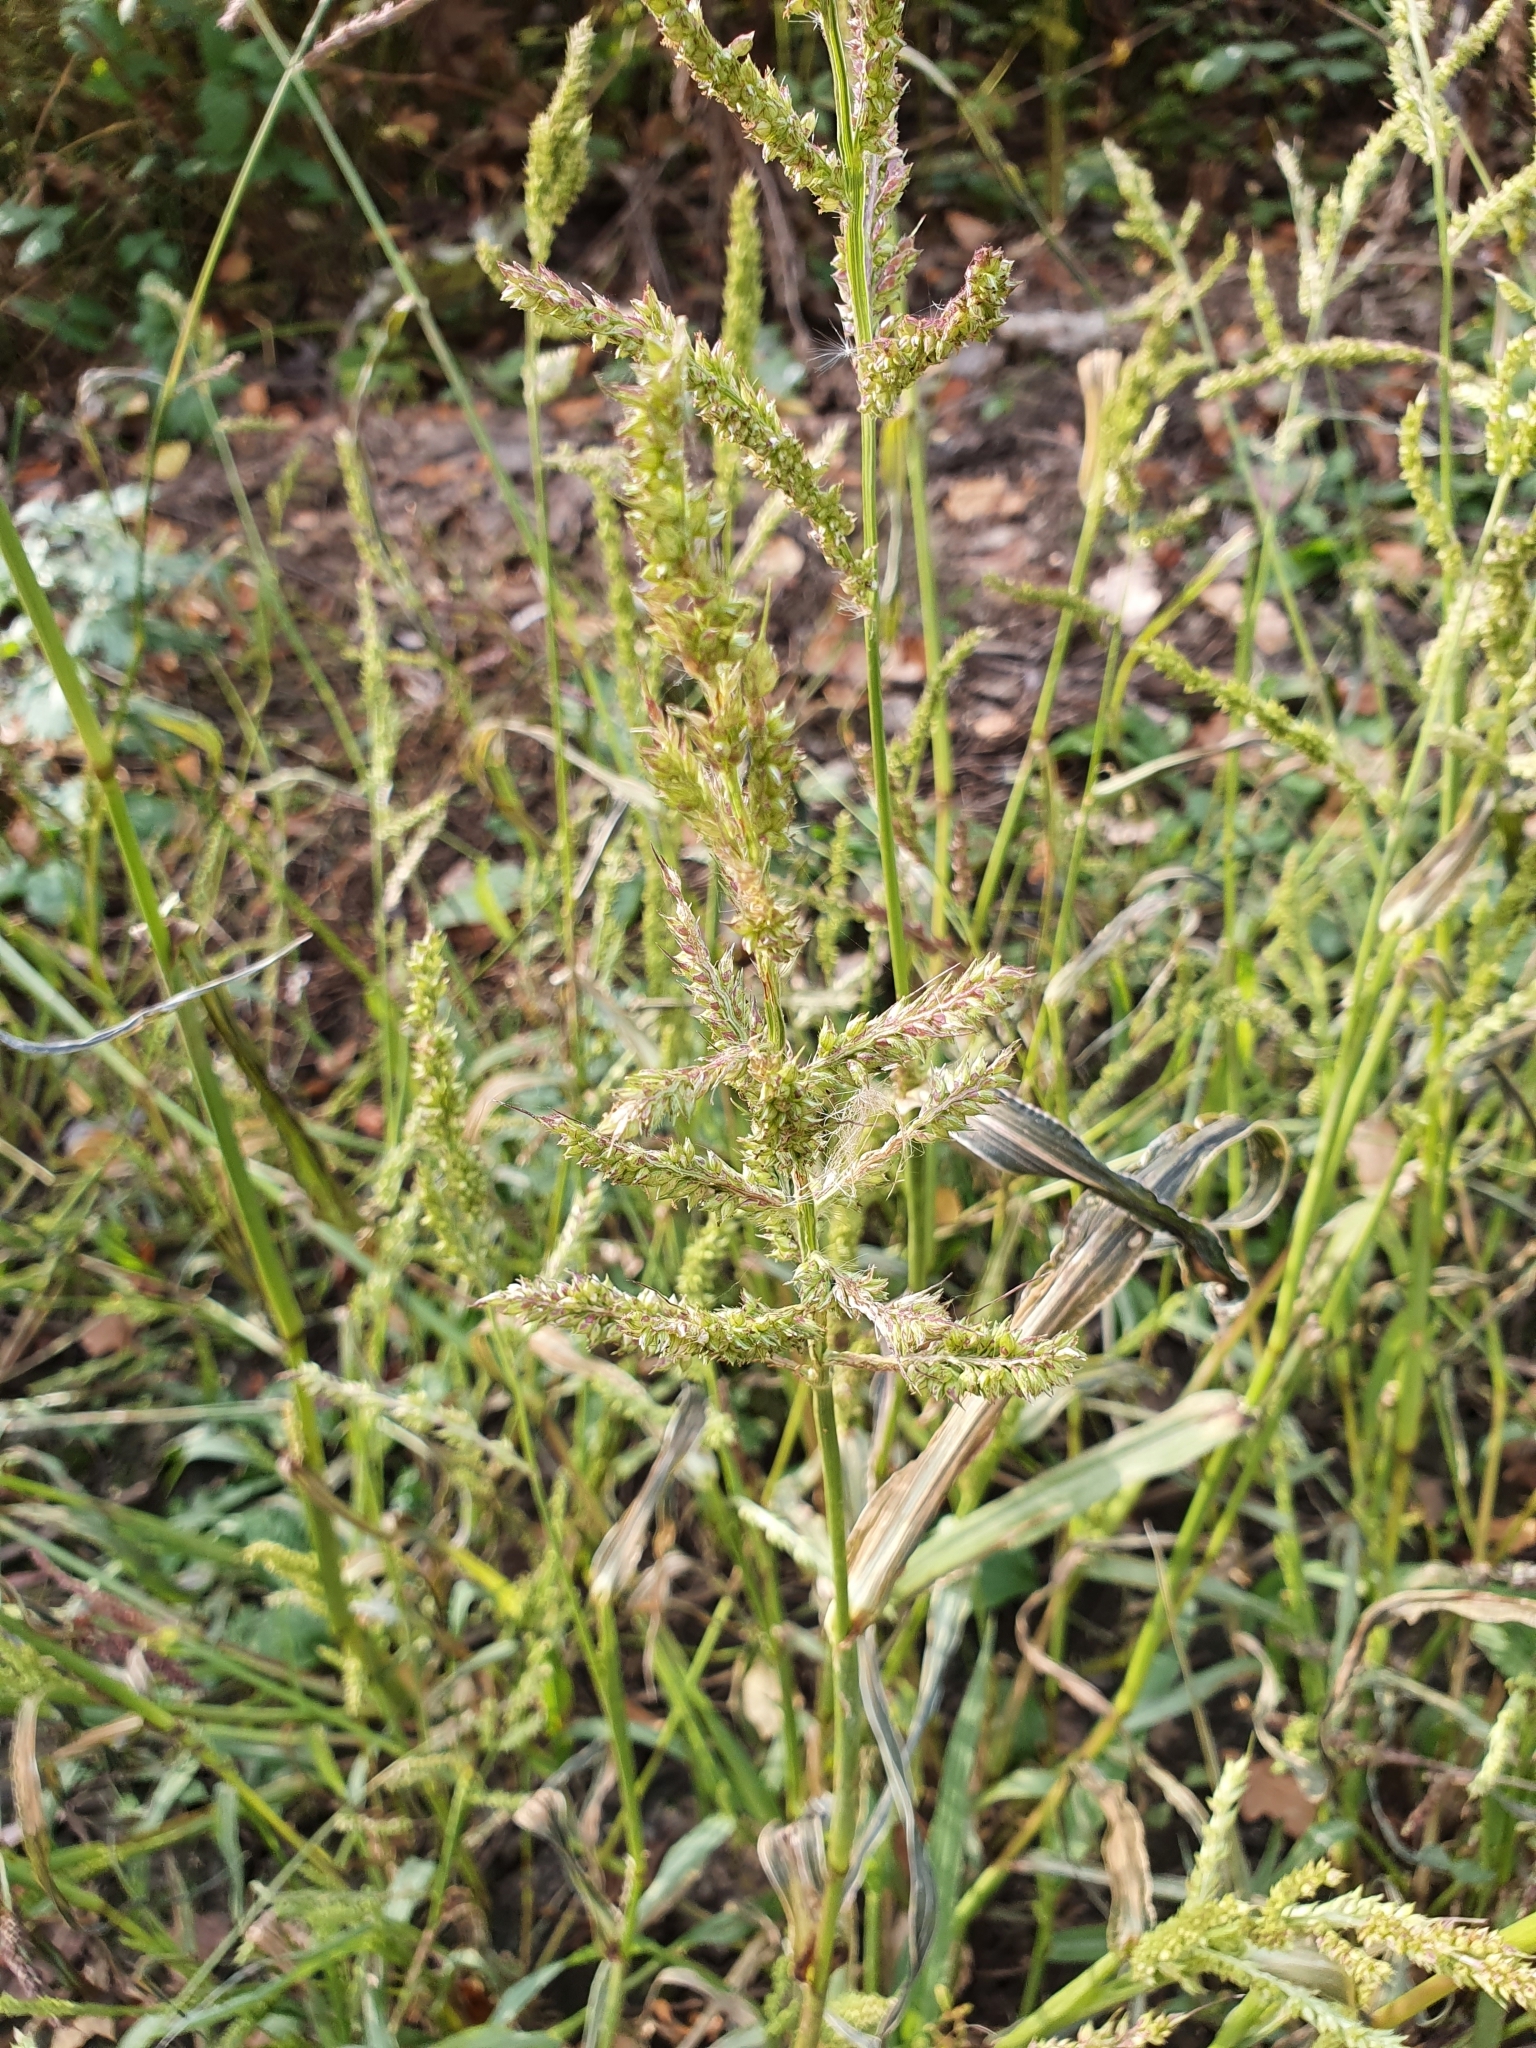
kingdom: Plantae
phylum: Tracheophyta
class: Liliopsida
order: Poales
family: Poaceae
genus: Echinochloa
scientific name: Echinochloa crus-galli
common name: Cockspur
